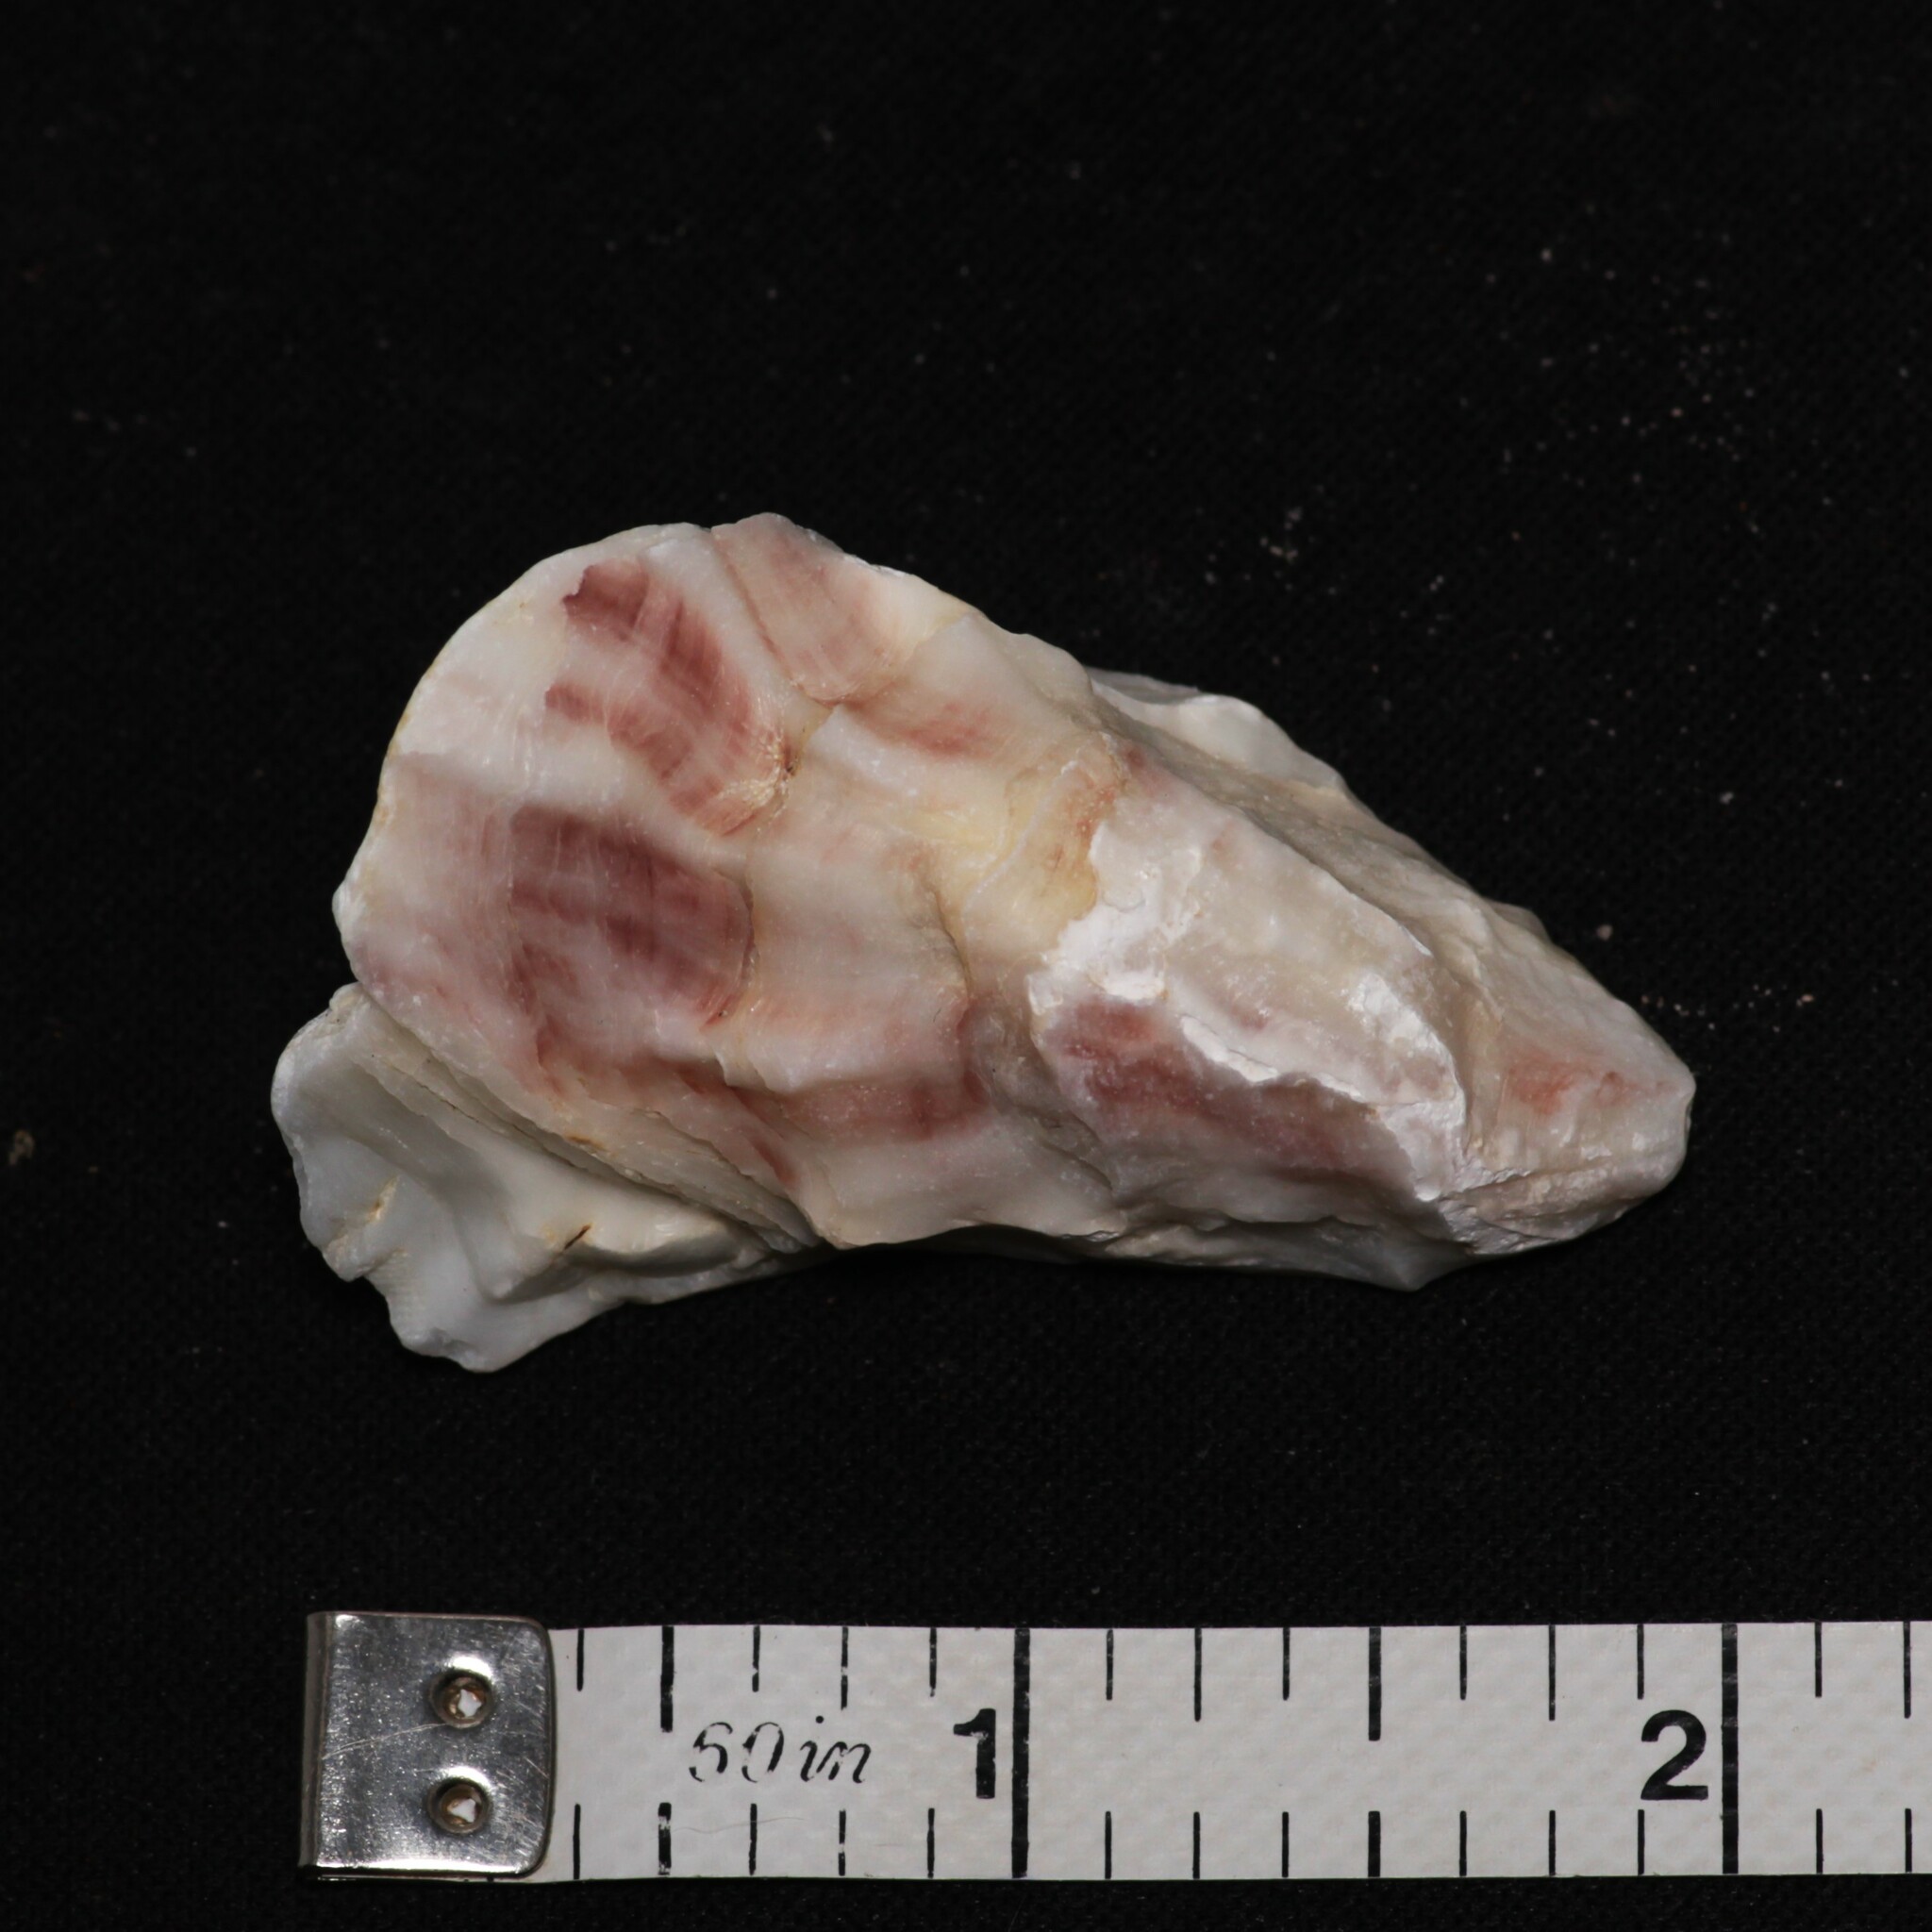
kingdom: Animalia
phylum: Mollusca
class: Bivalvia
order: Ostreida
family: Ostreidae
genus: Crassostrea
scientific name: Crassostrea virginica
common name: American oyster
